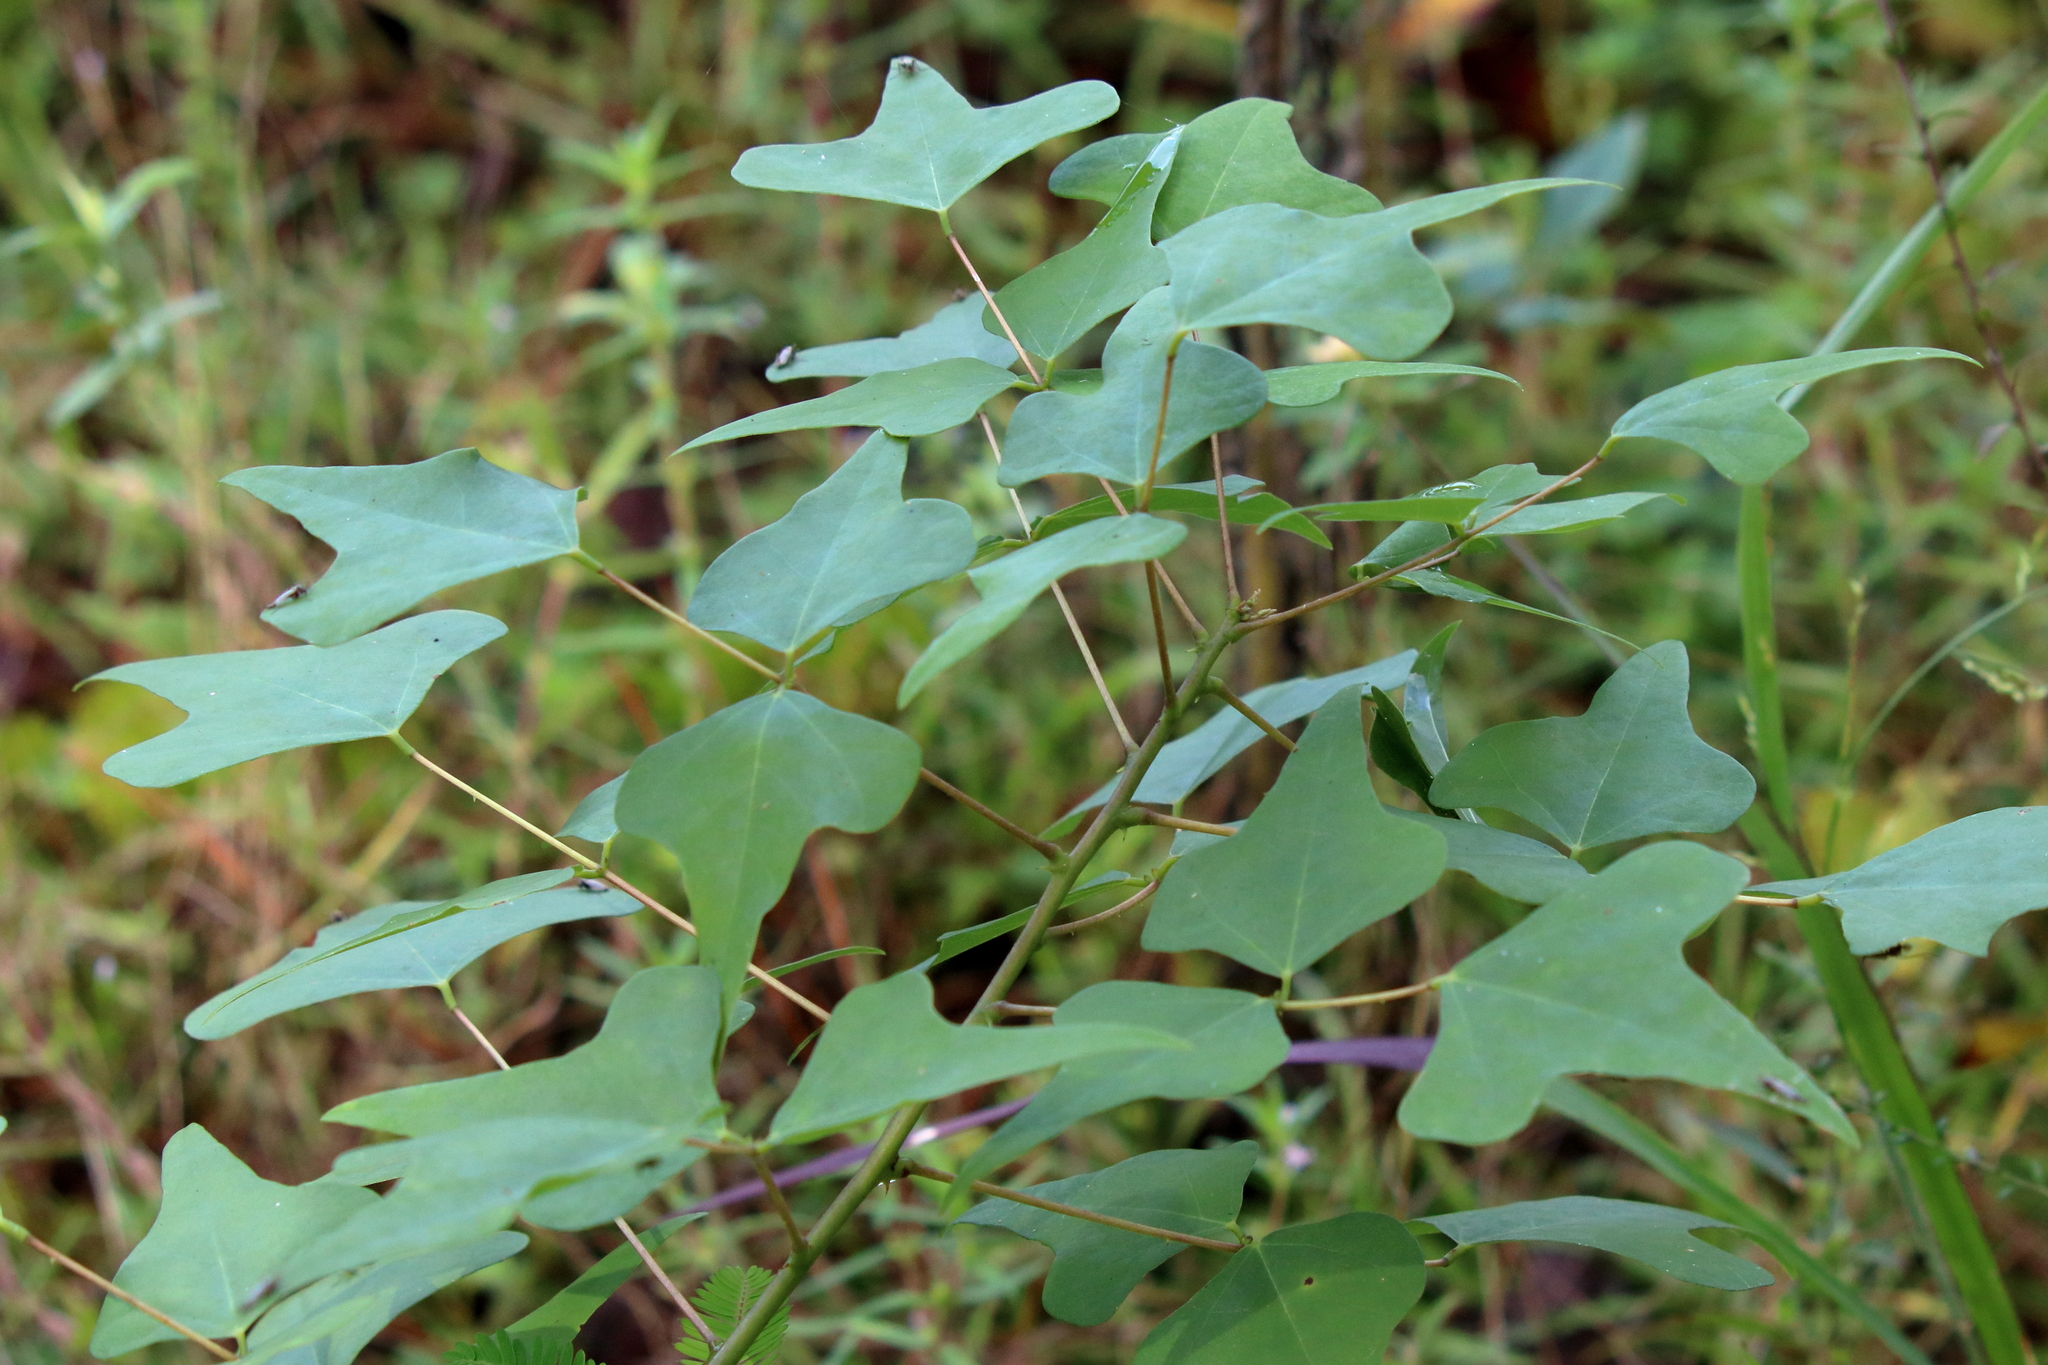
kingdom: Plantae
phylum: Tracheophyta
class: Magnoliopsida
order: Fabales
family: Fabaceae
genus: Erythrina
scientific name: Erythrina herbacea
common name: Coral-bean
